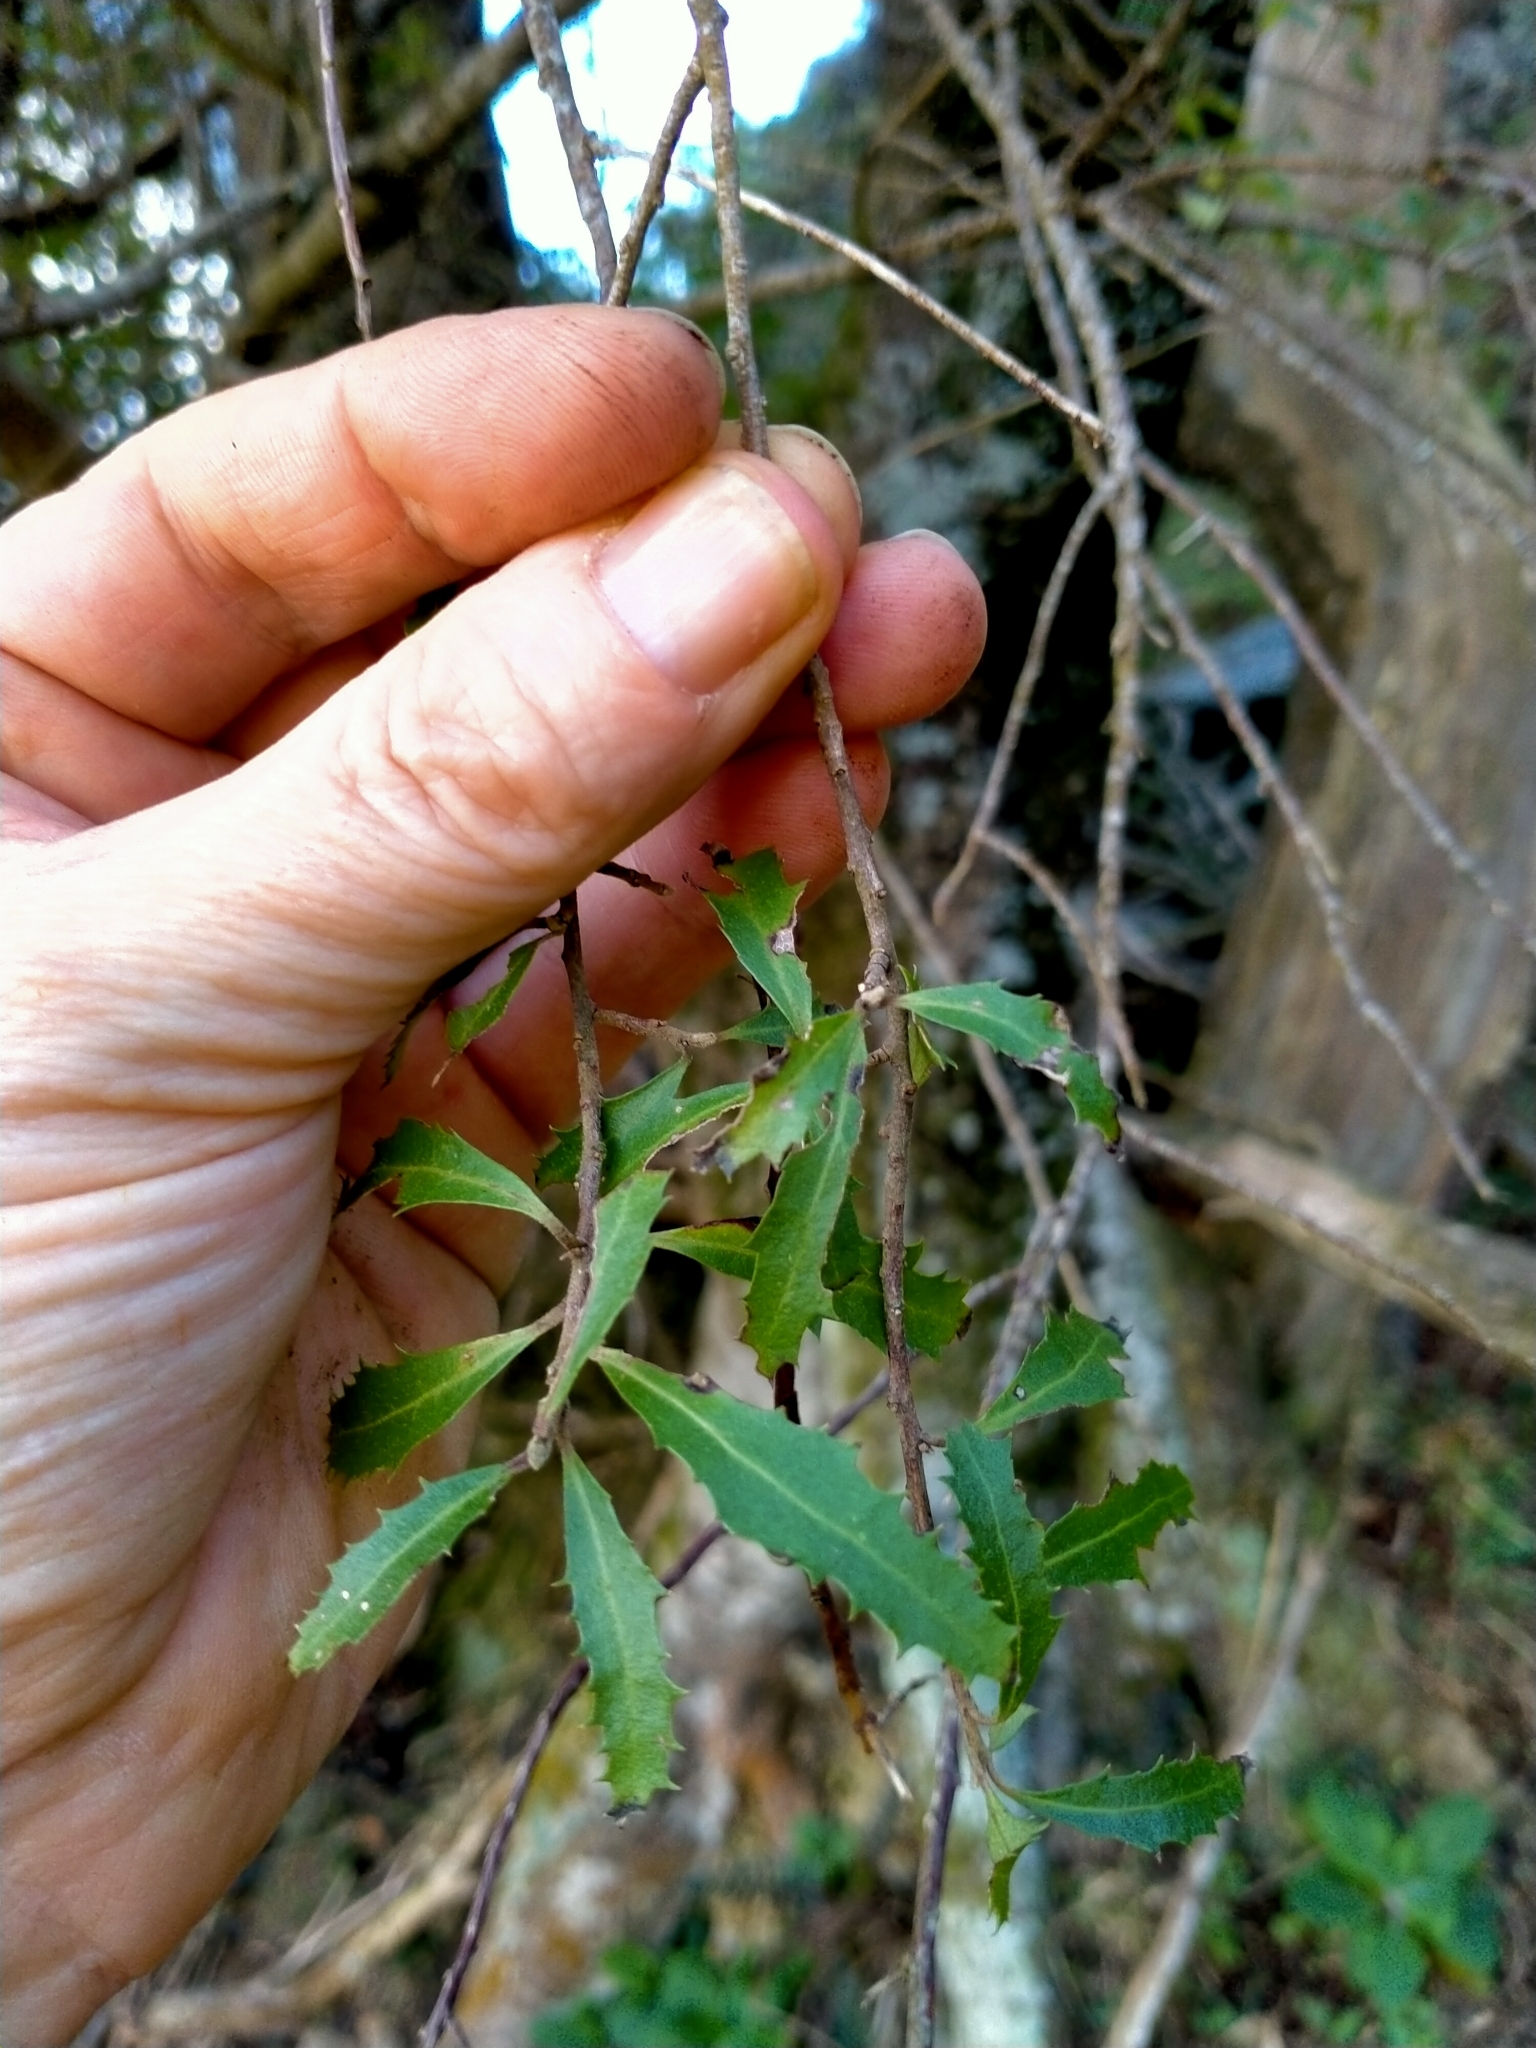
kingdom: Plantae
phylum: Tracheophyta
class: Magnoliopsida
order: Malvales
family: Malvaceae
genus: Hoheria
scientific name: Hoheria angustifolia
